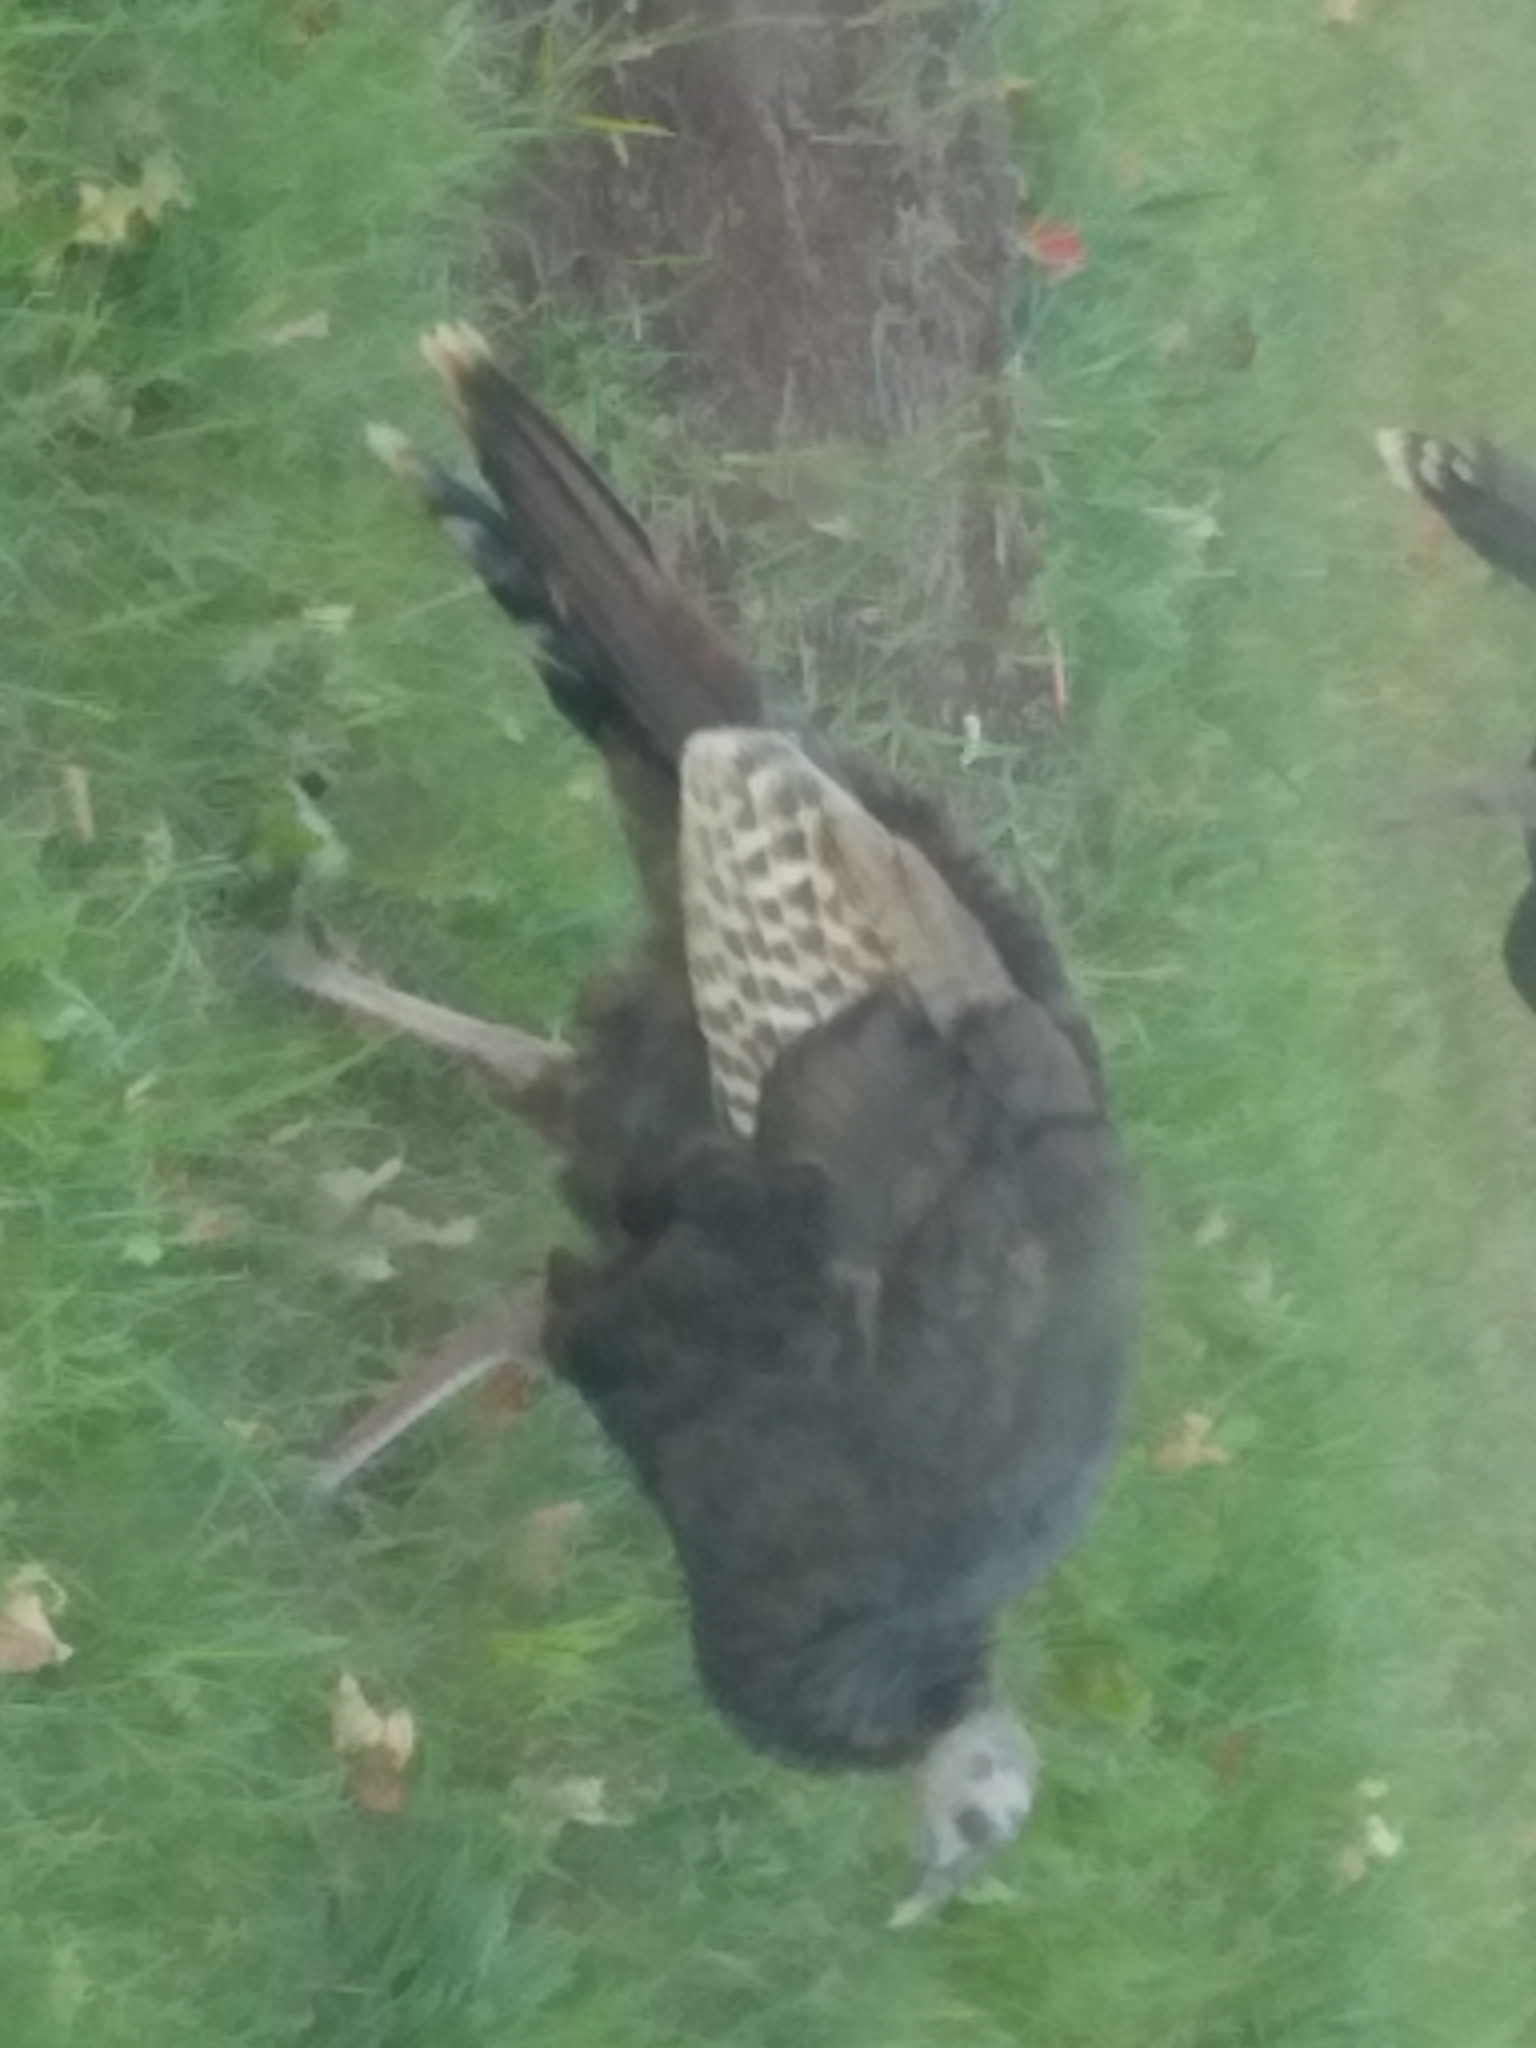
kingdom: Animalia
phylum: Chordata
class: Aves
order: Galliformes
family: Phasianidae
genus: Meleagris
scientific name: Meleagris gallopavo
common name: Wild turkey
